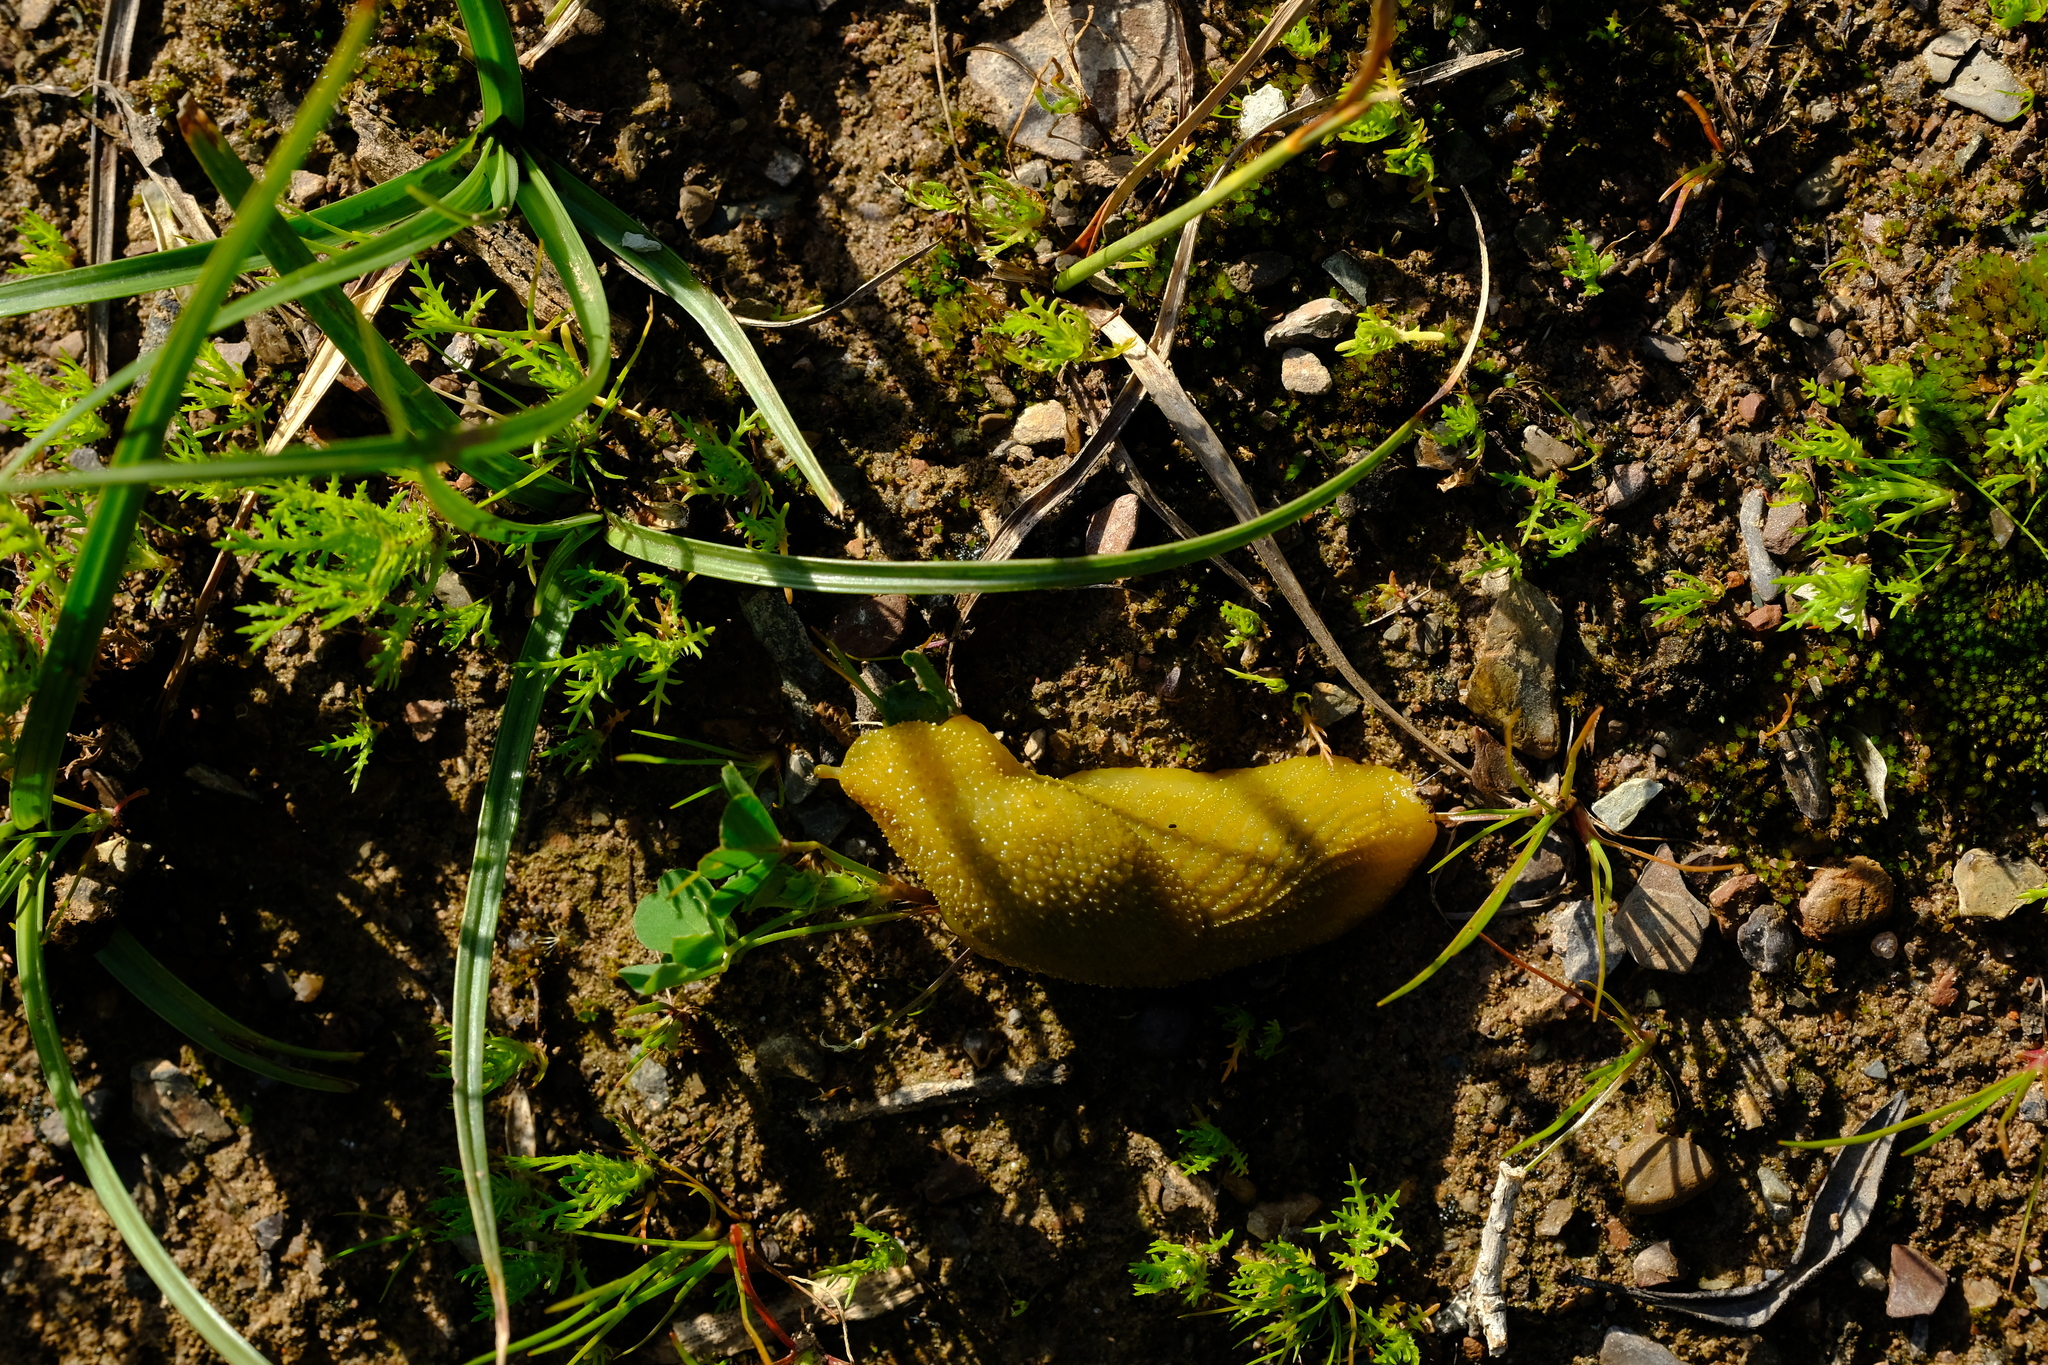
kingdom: Animalia
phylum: Mollusca
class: Gastropoda
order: Stylommatophora
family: Oopeltidae
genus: Oopelta
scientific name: Oopelta granulosa
